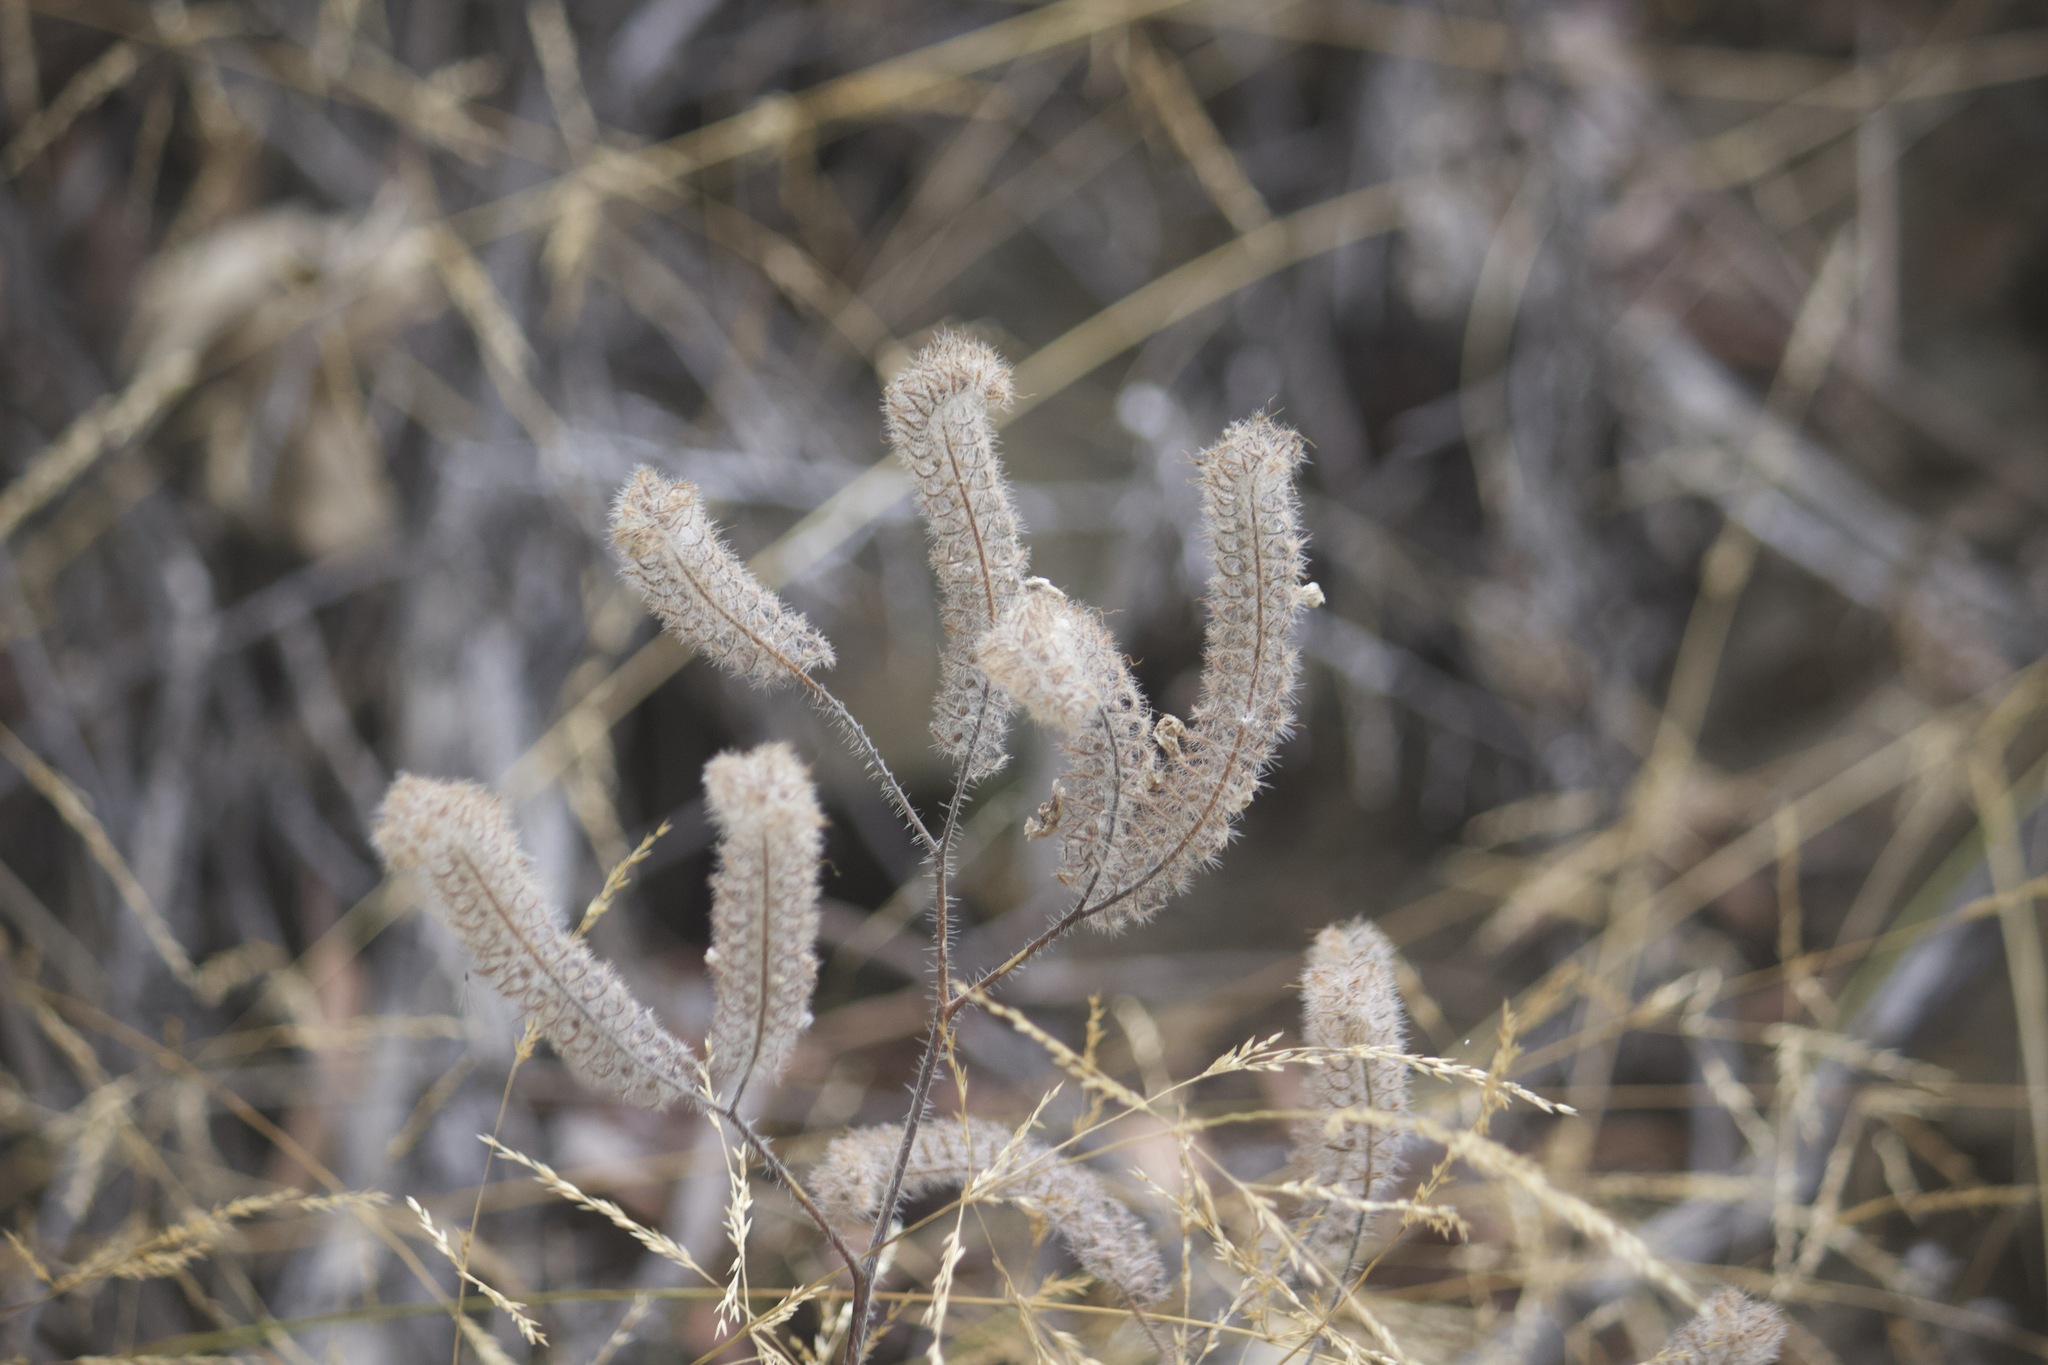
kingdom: Plantae
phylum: Tracheophyta
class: Magnoliopsida
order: Boraginales
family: Hydrophyllaceae
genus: Phacelia
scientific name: Phacelia cicutaria
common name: Caterpillar phacelia
